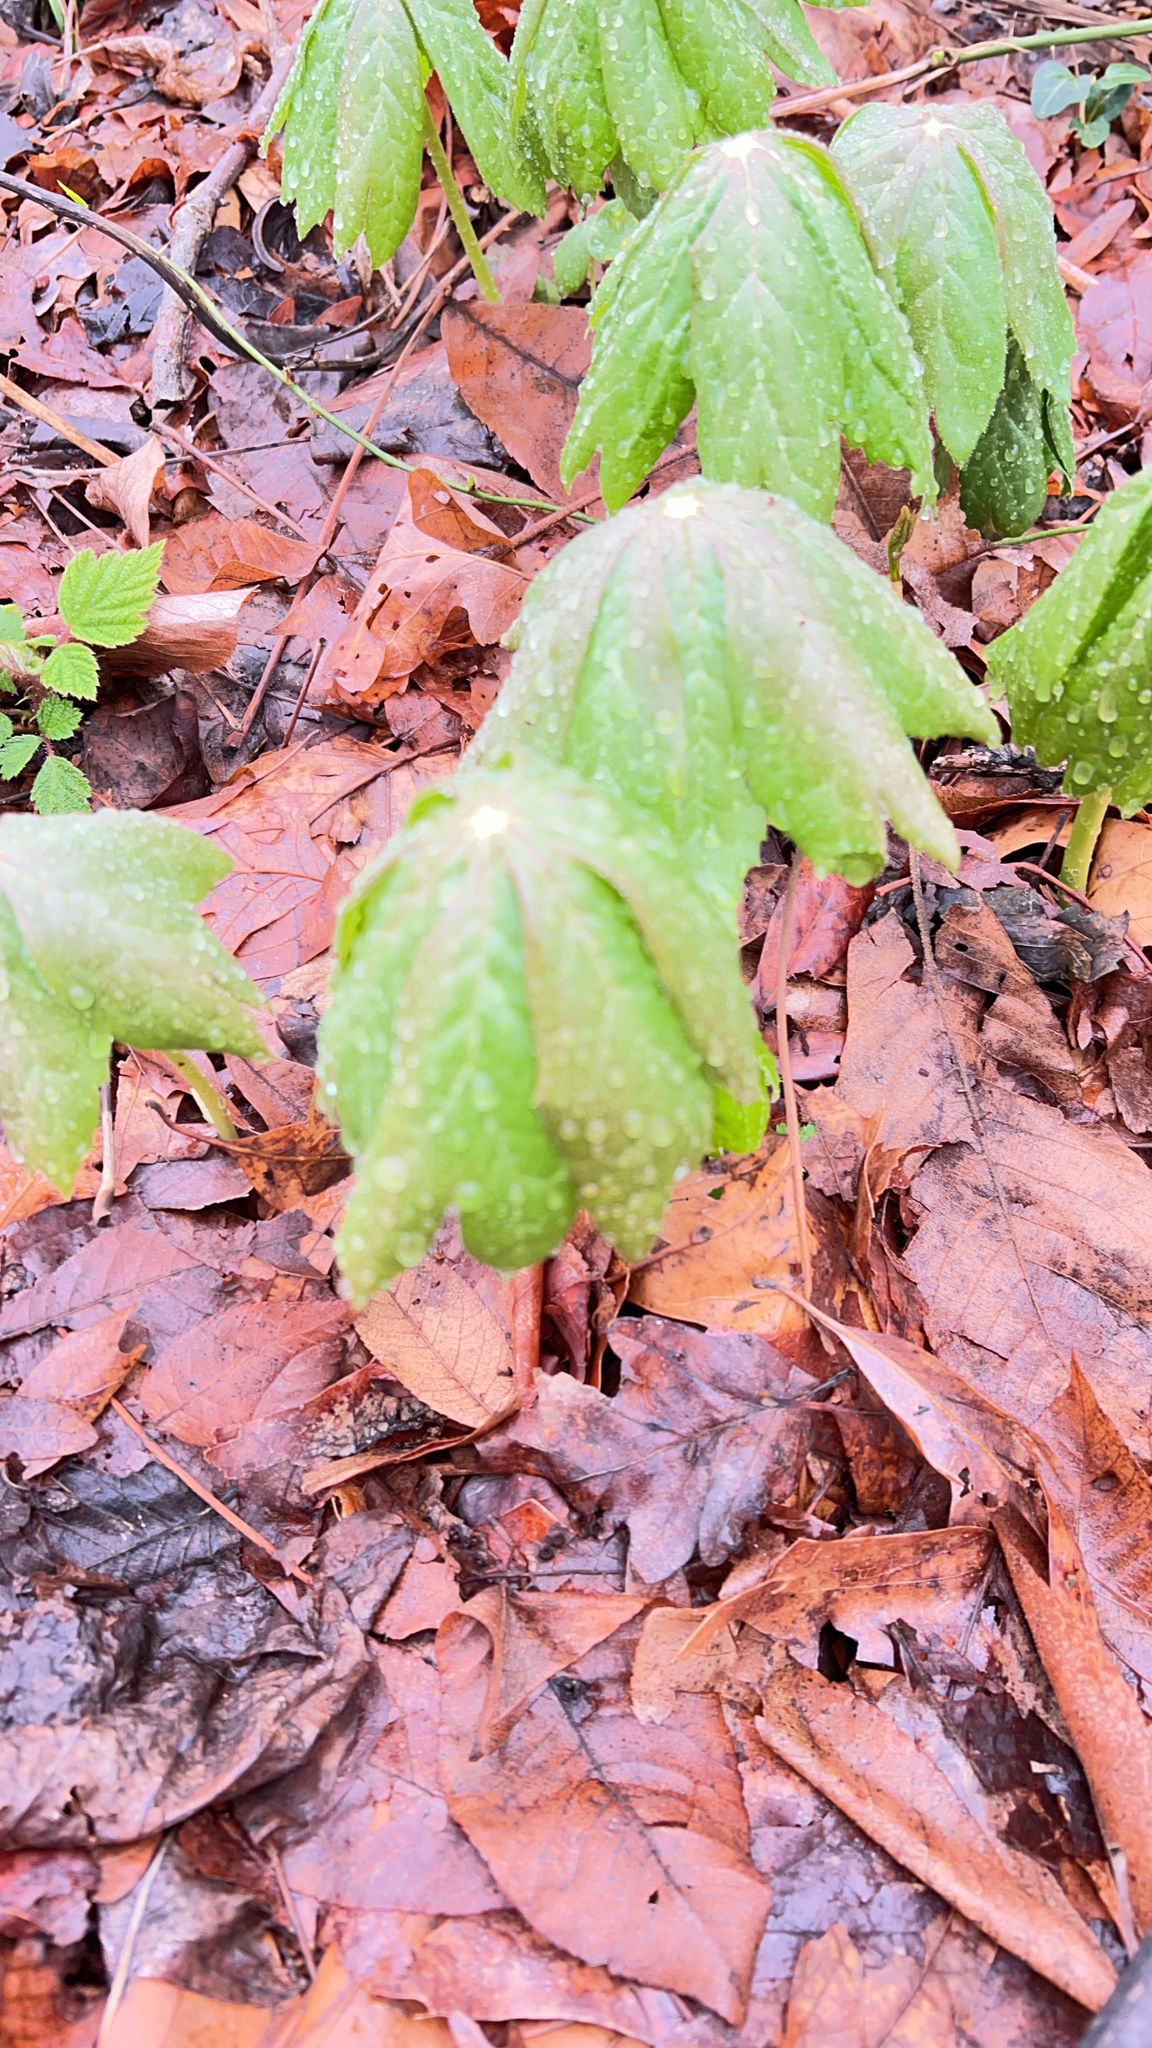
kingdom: Plantae
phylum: Tracheophyta
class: Magnoliopsida
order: Ranunculales
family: Berberidaceae
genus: Podophyllum
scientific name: Podophyllum peltatum
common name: Wild mandrake
